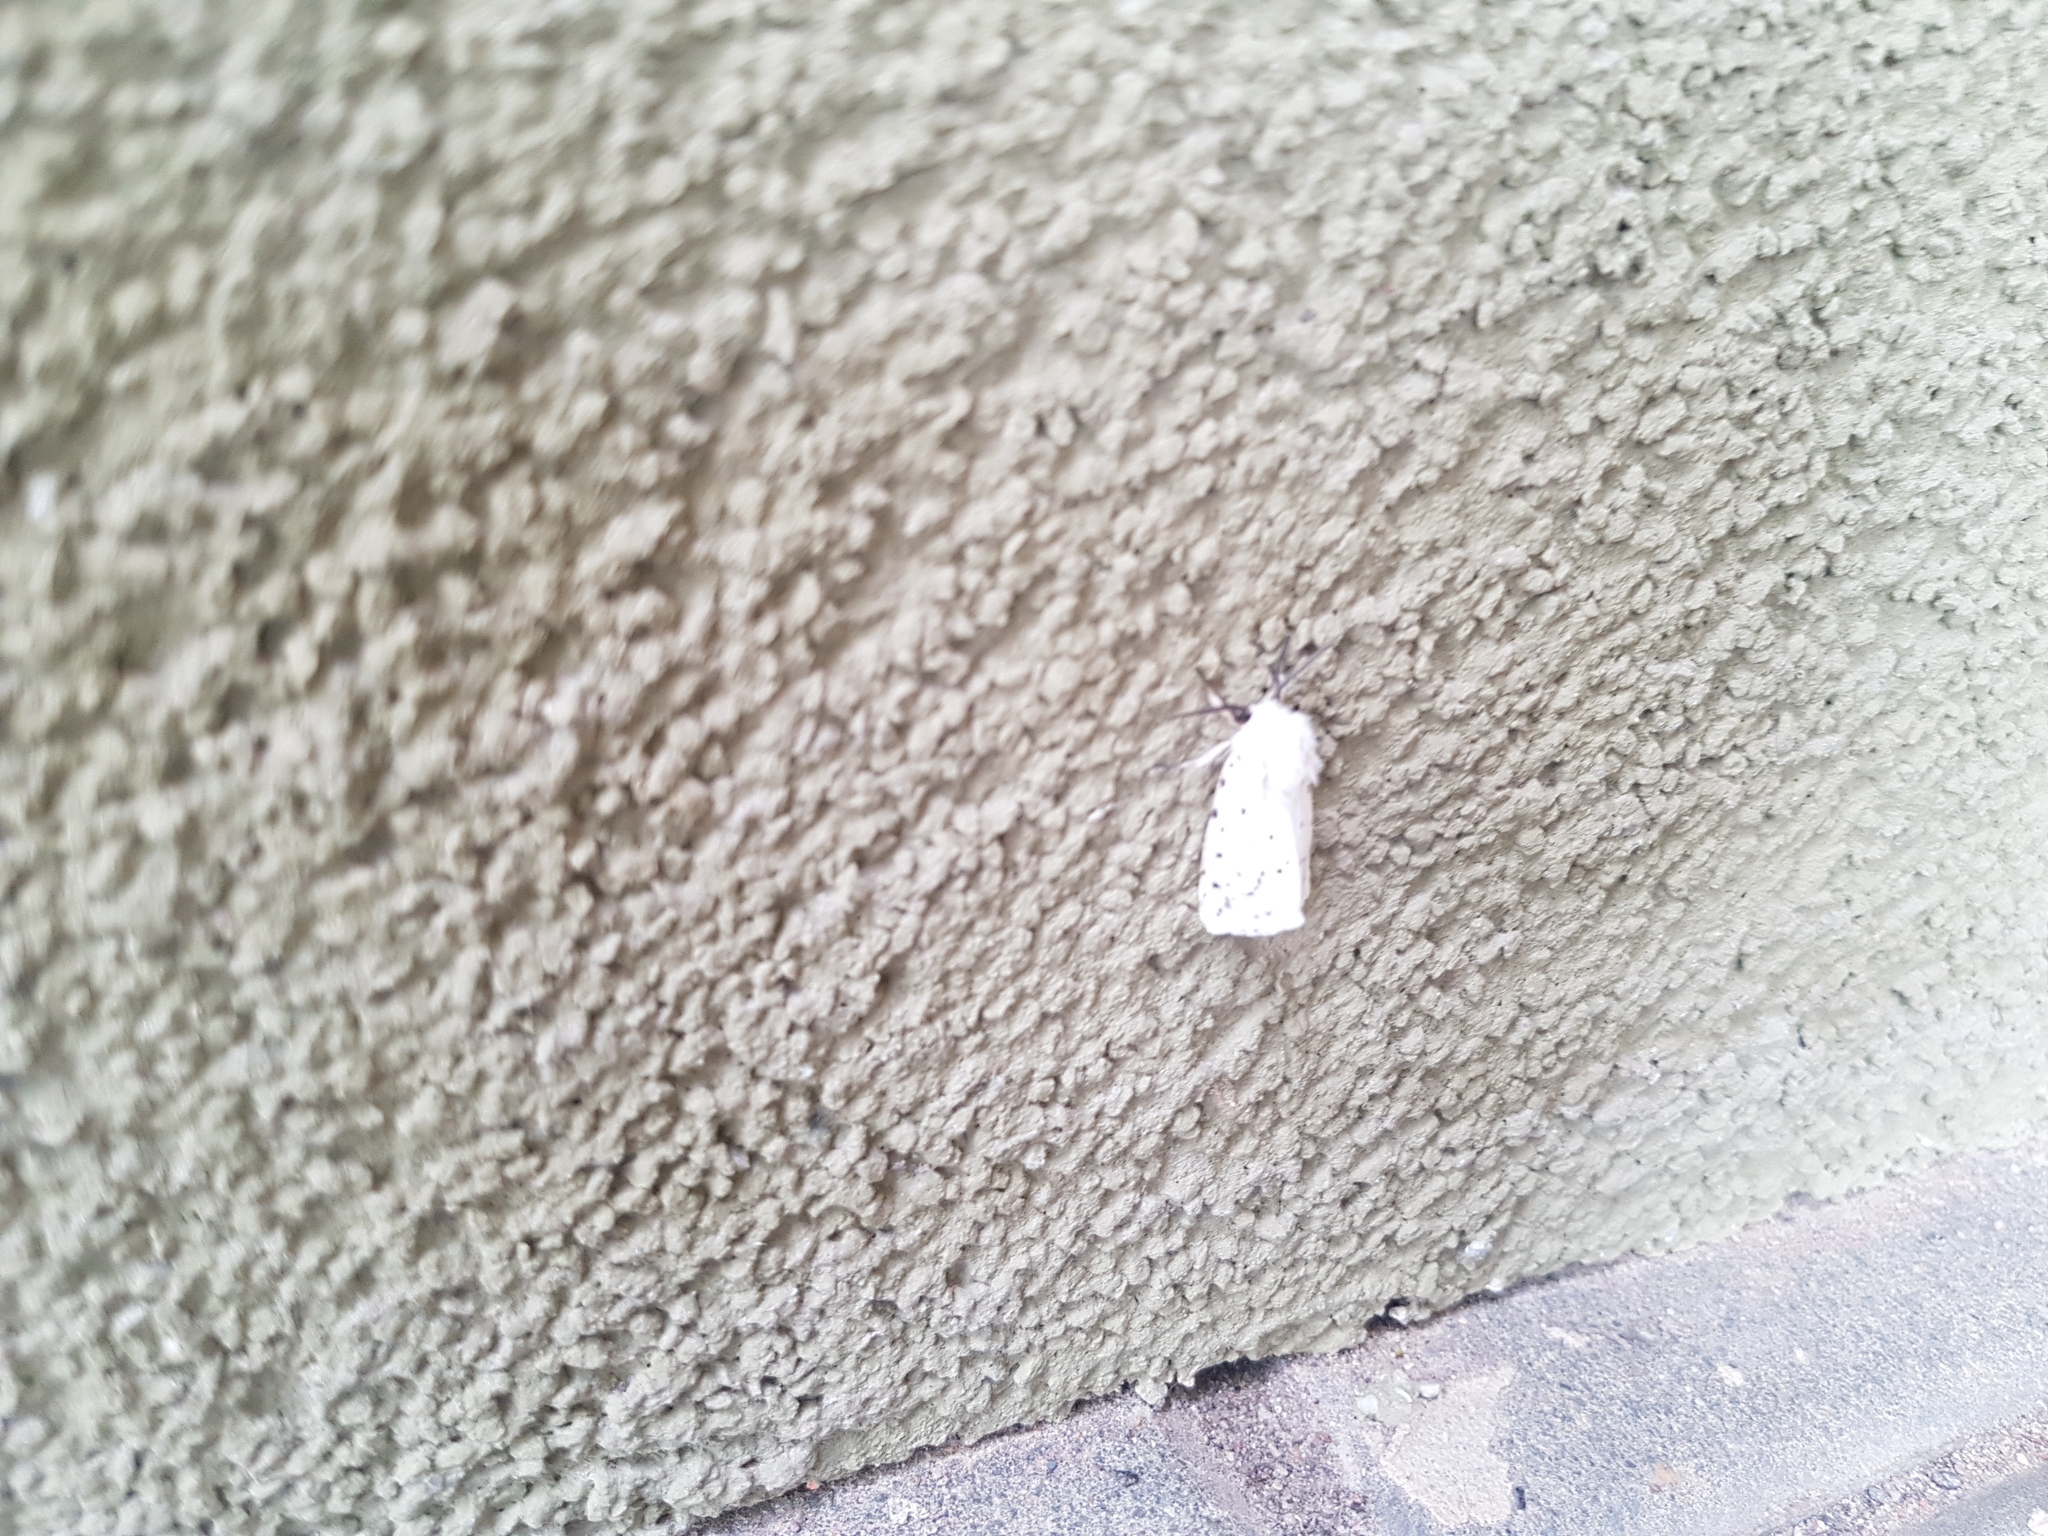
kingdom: Animalia
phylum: Arthropoda
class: Insecta
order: Lepidoptera
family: Erebidae
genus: Spilosoma
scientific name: Spilosoma lubricipeda
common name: White ermine
